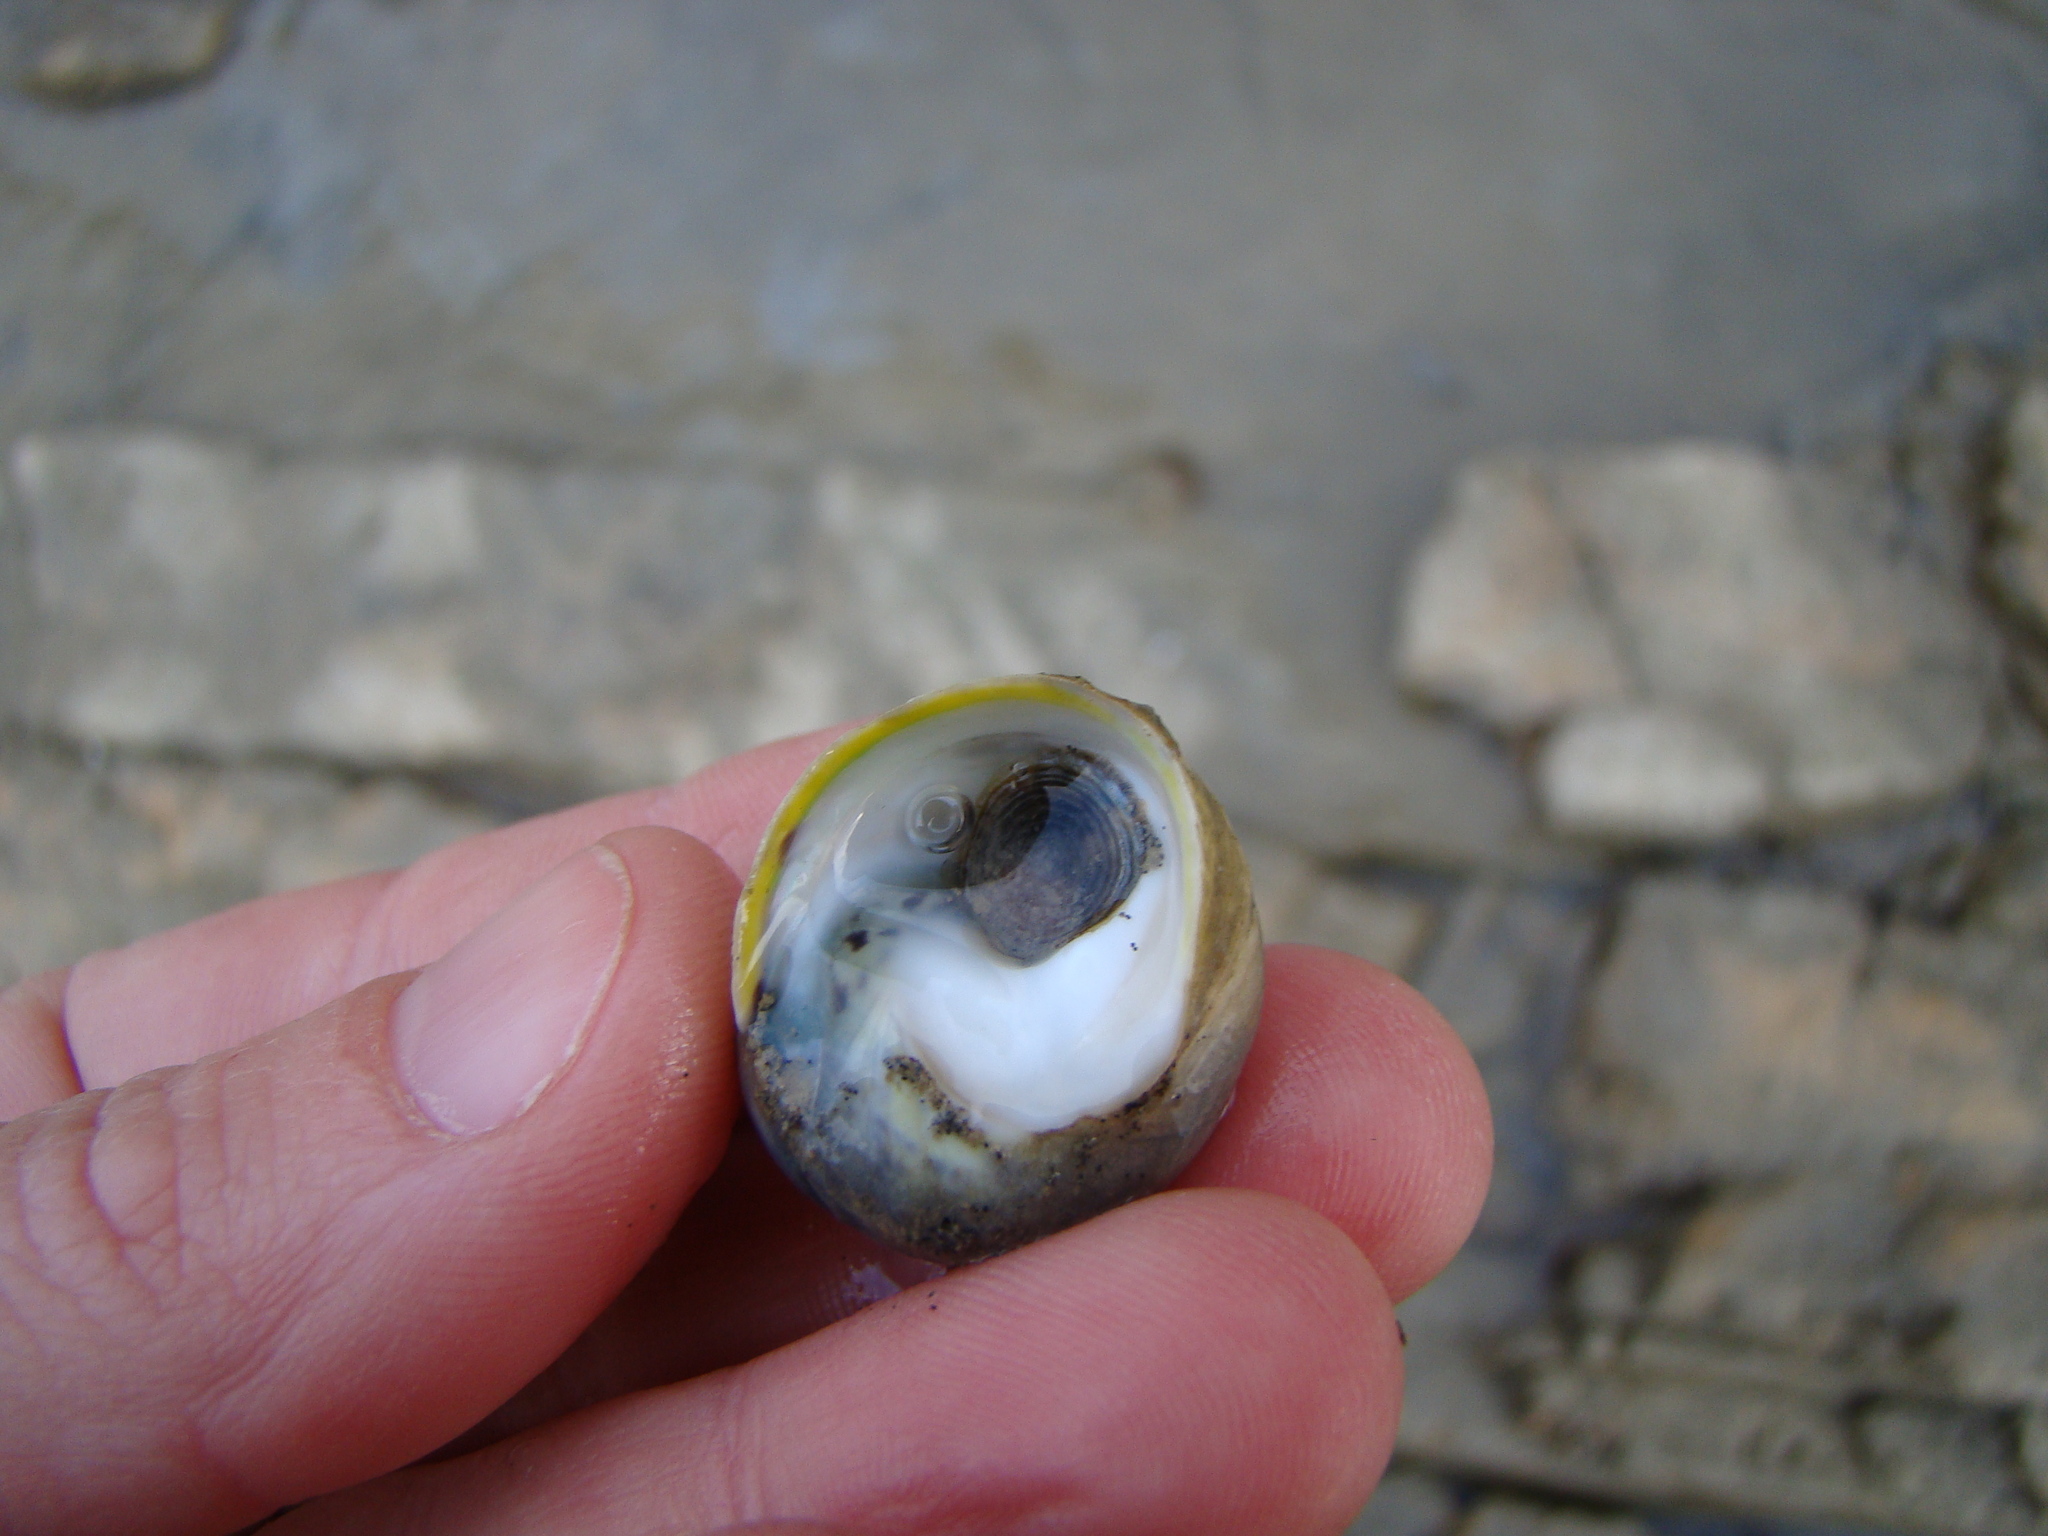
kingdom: Animalia
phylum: Mollusca
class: Gastropoda
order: Trochida
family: Trochidae
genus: Diloma
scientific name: Diloma subrostratum
